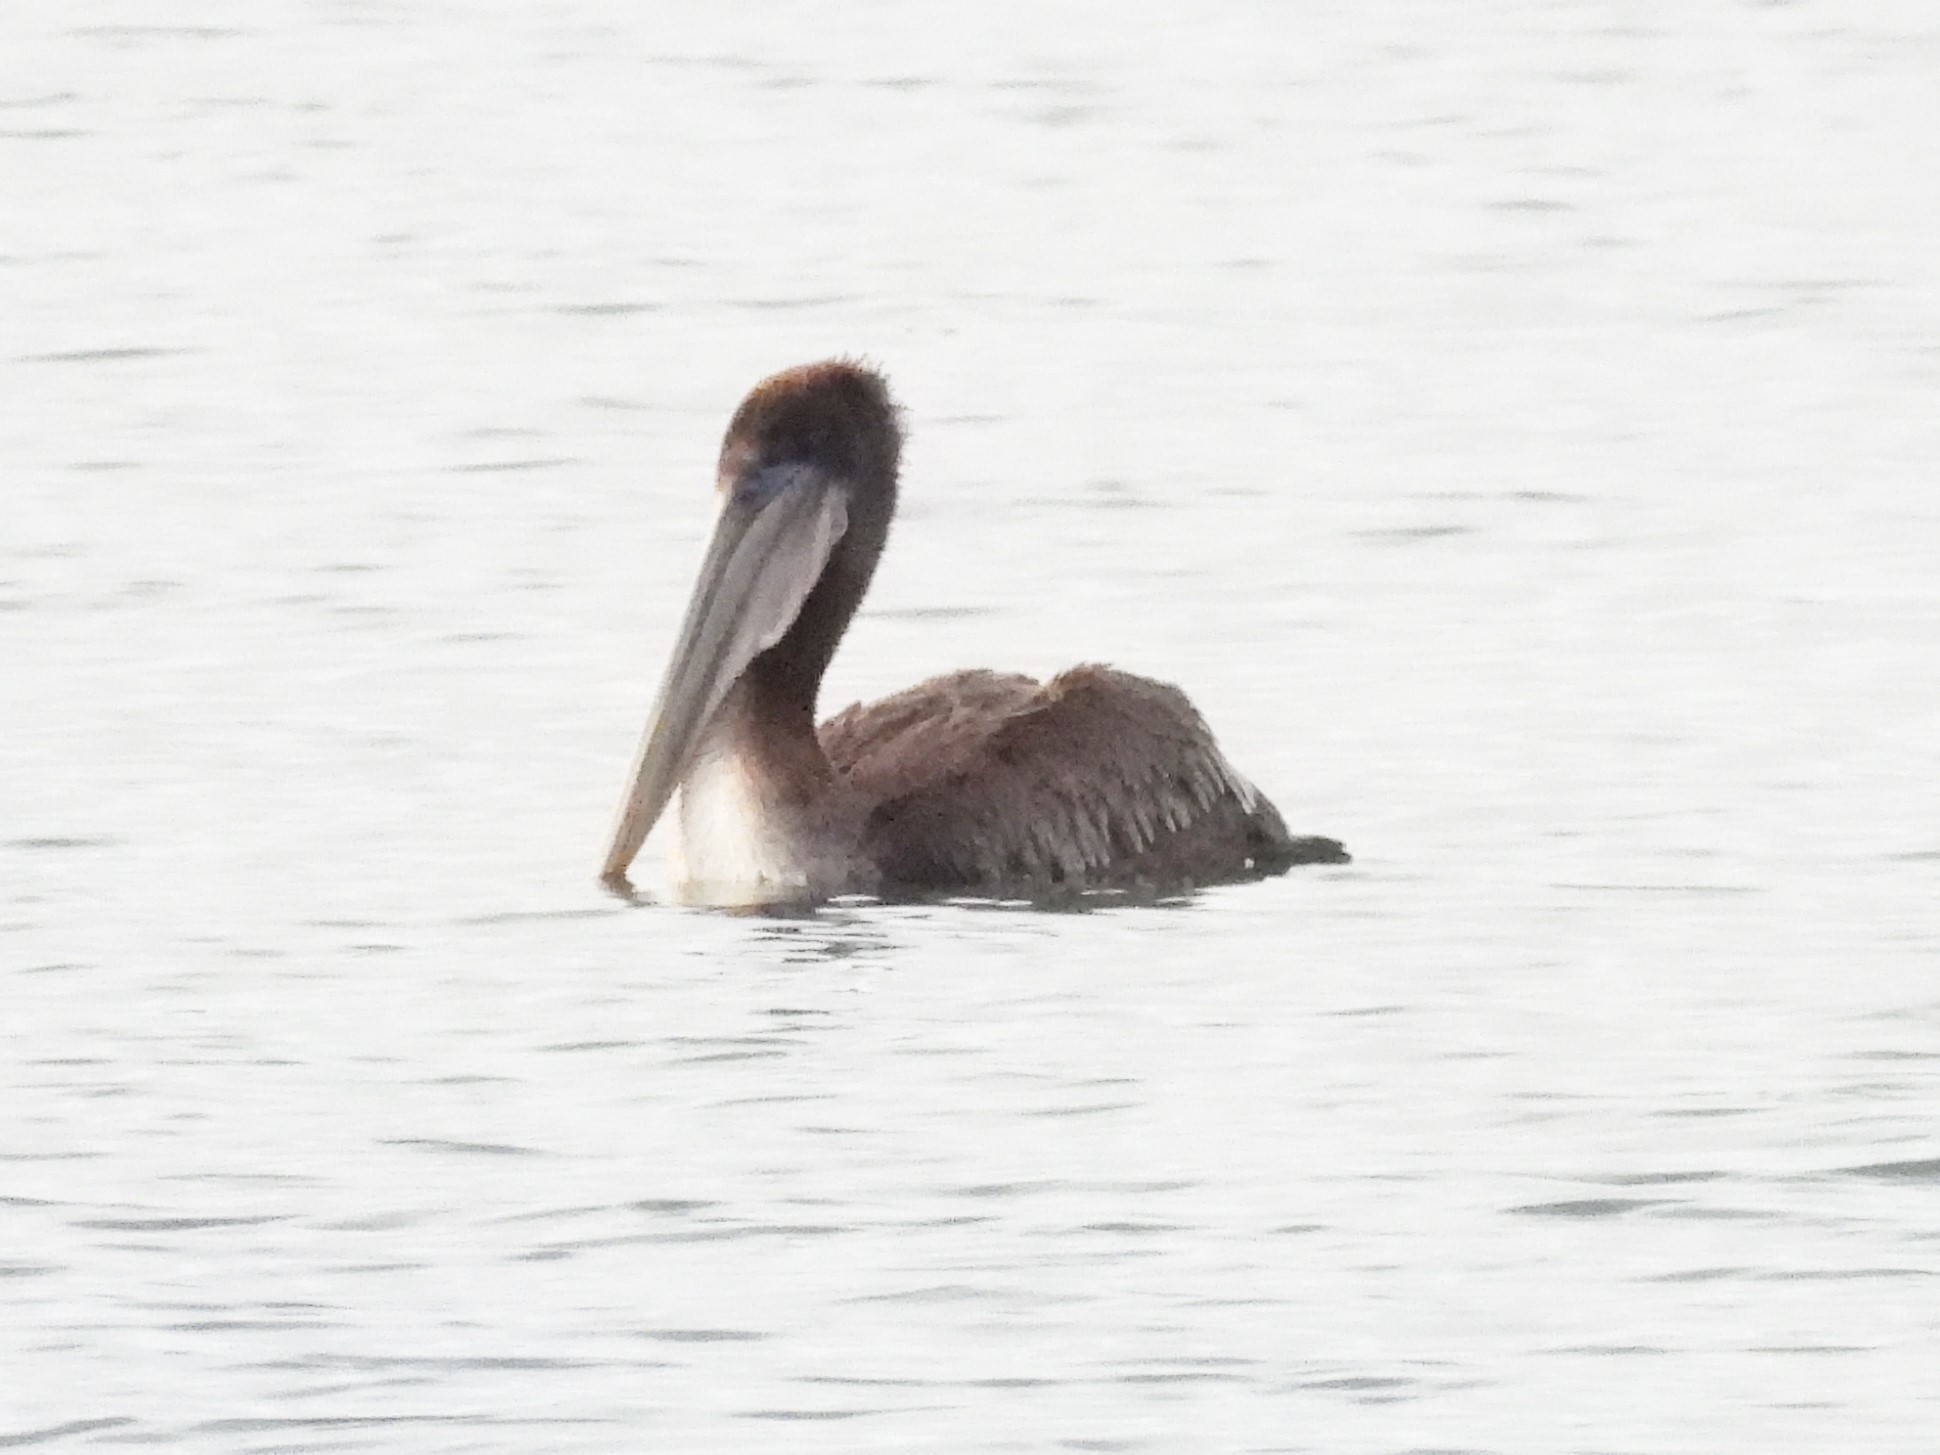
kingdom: Animalia
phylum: Chordata
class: Aves
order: Pelecaniformes
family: Pelecanidae
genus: Pelecanus
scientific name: Pelecanus occidentalis
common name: Brown pelican
